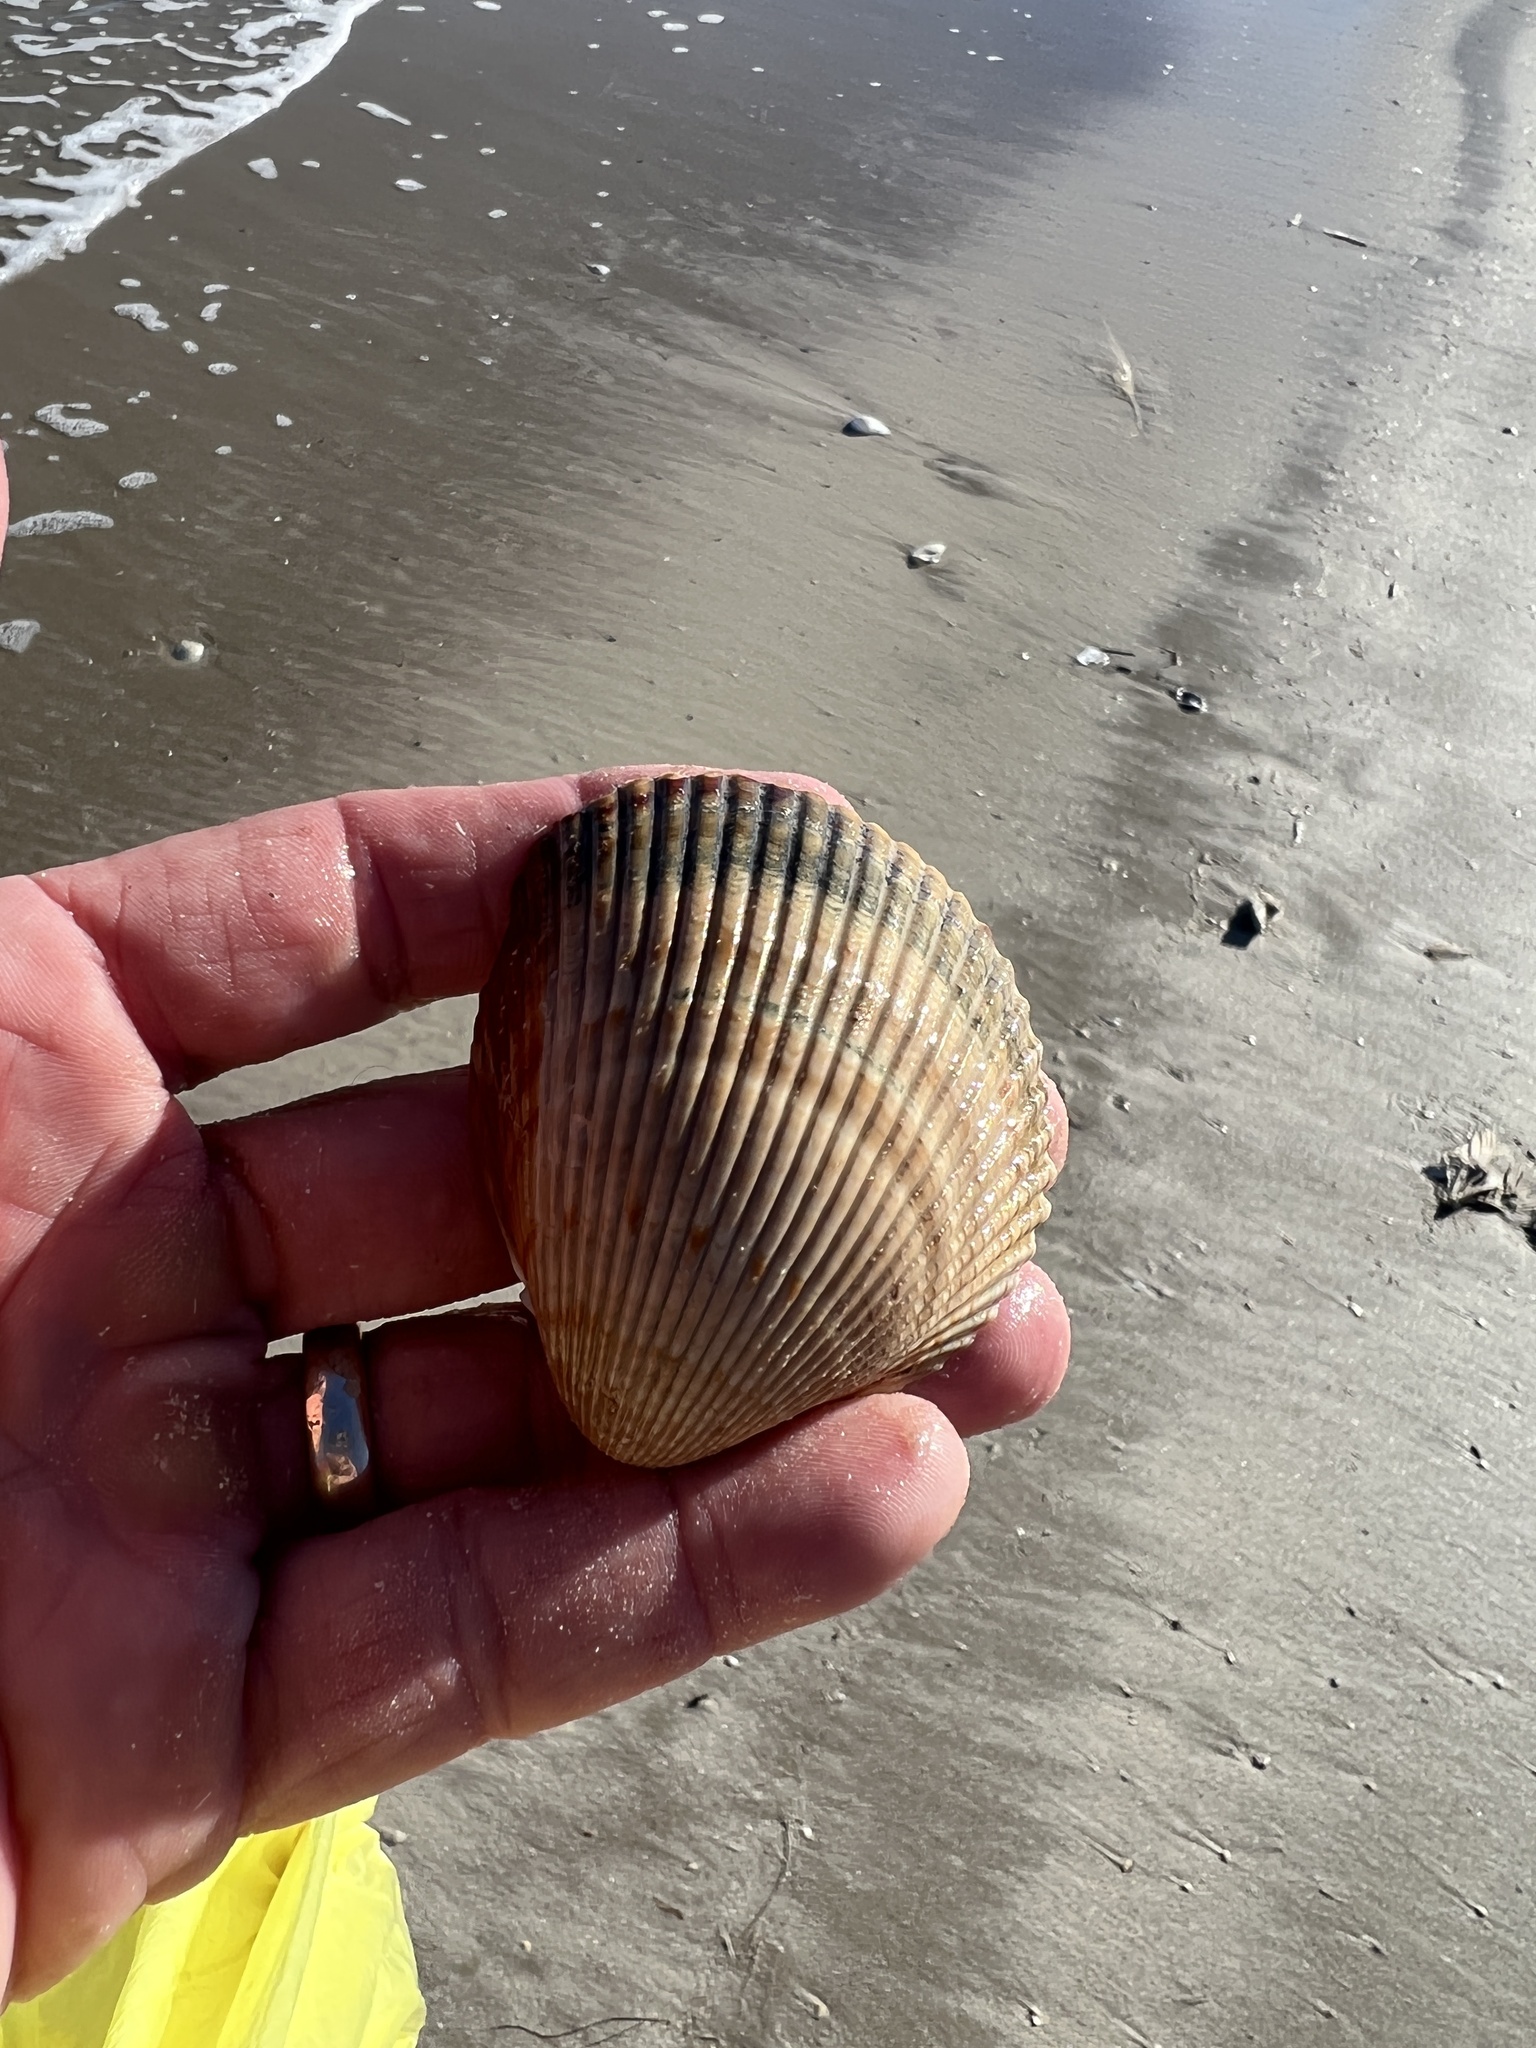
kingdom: Animalia
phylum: Mollusca
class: Bivalvia
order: Cardiida
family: Cardiidae
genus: Dinocardium
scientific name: Dinocardium robustum
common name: Atlantic giant cockle
